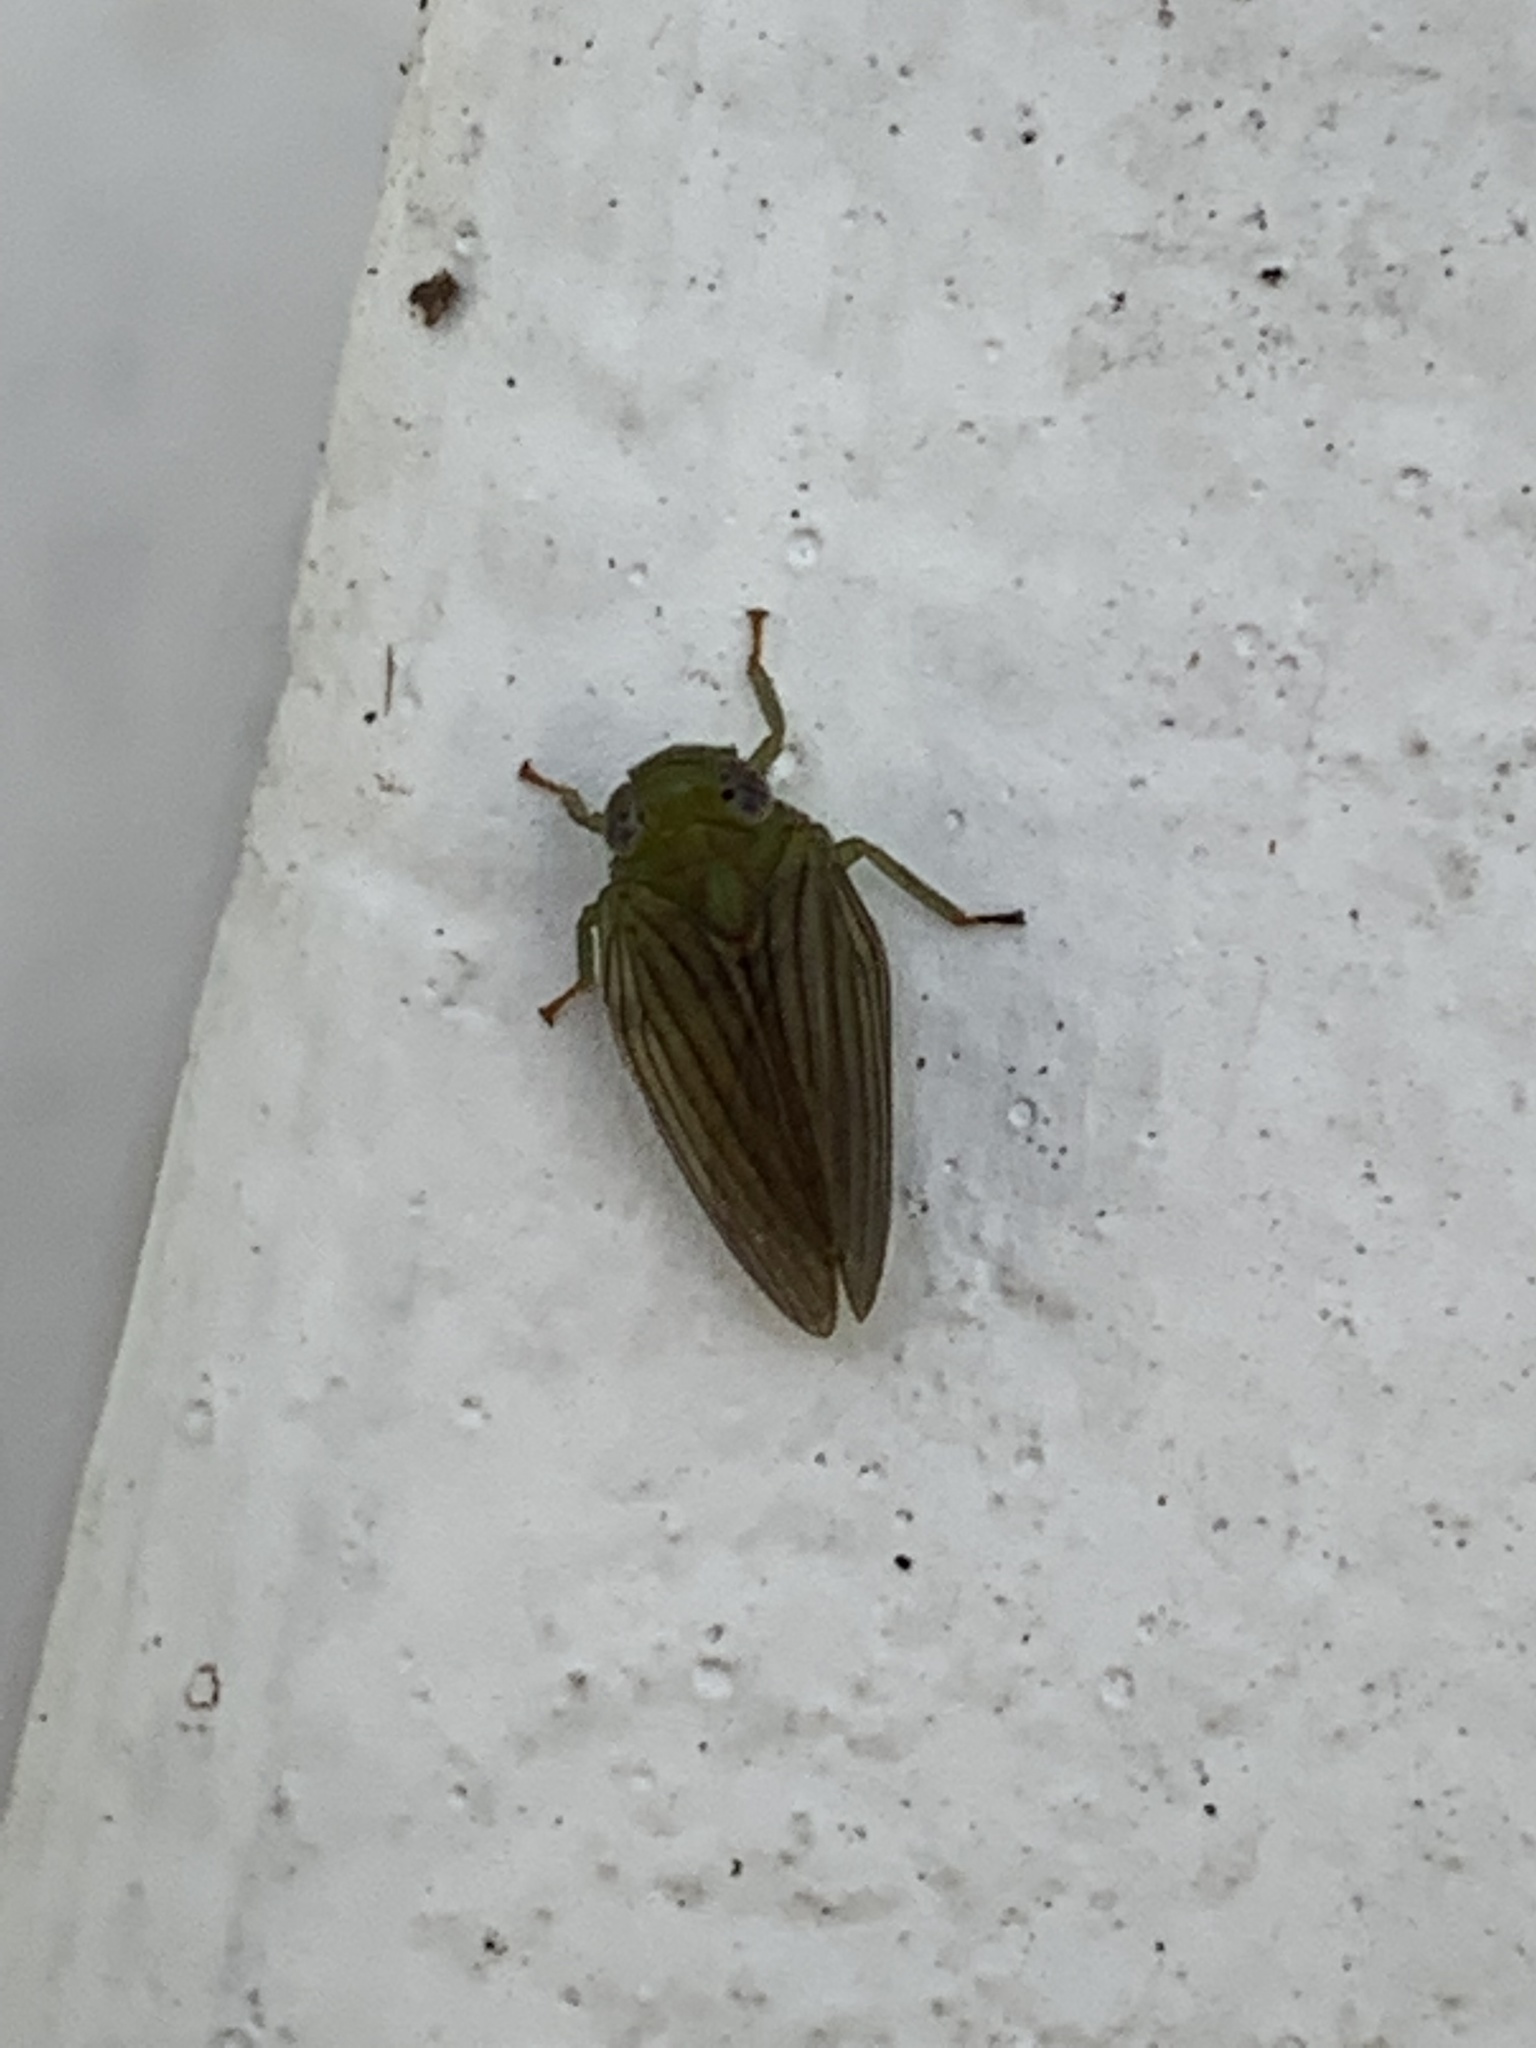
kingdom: Animalia
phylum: Arthropoda
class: Insecta
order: Hemiptera
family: Issidae
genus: Aplos
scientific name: Aplos simplex
